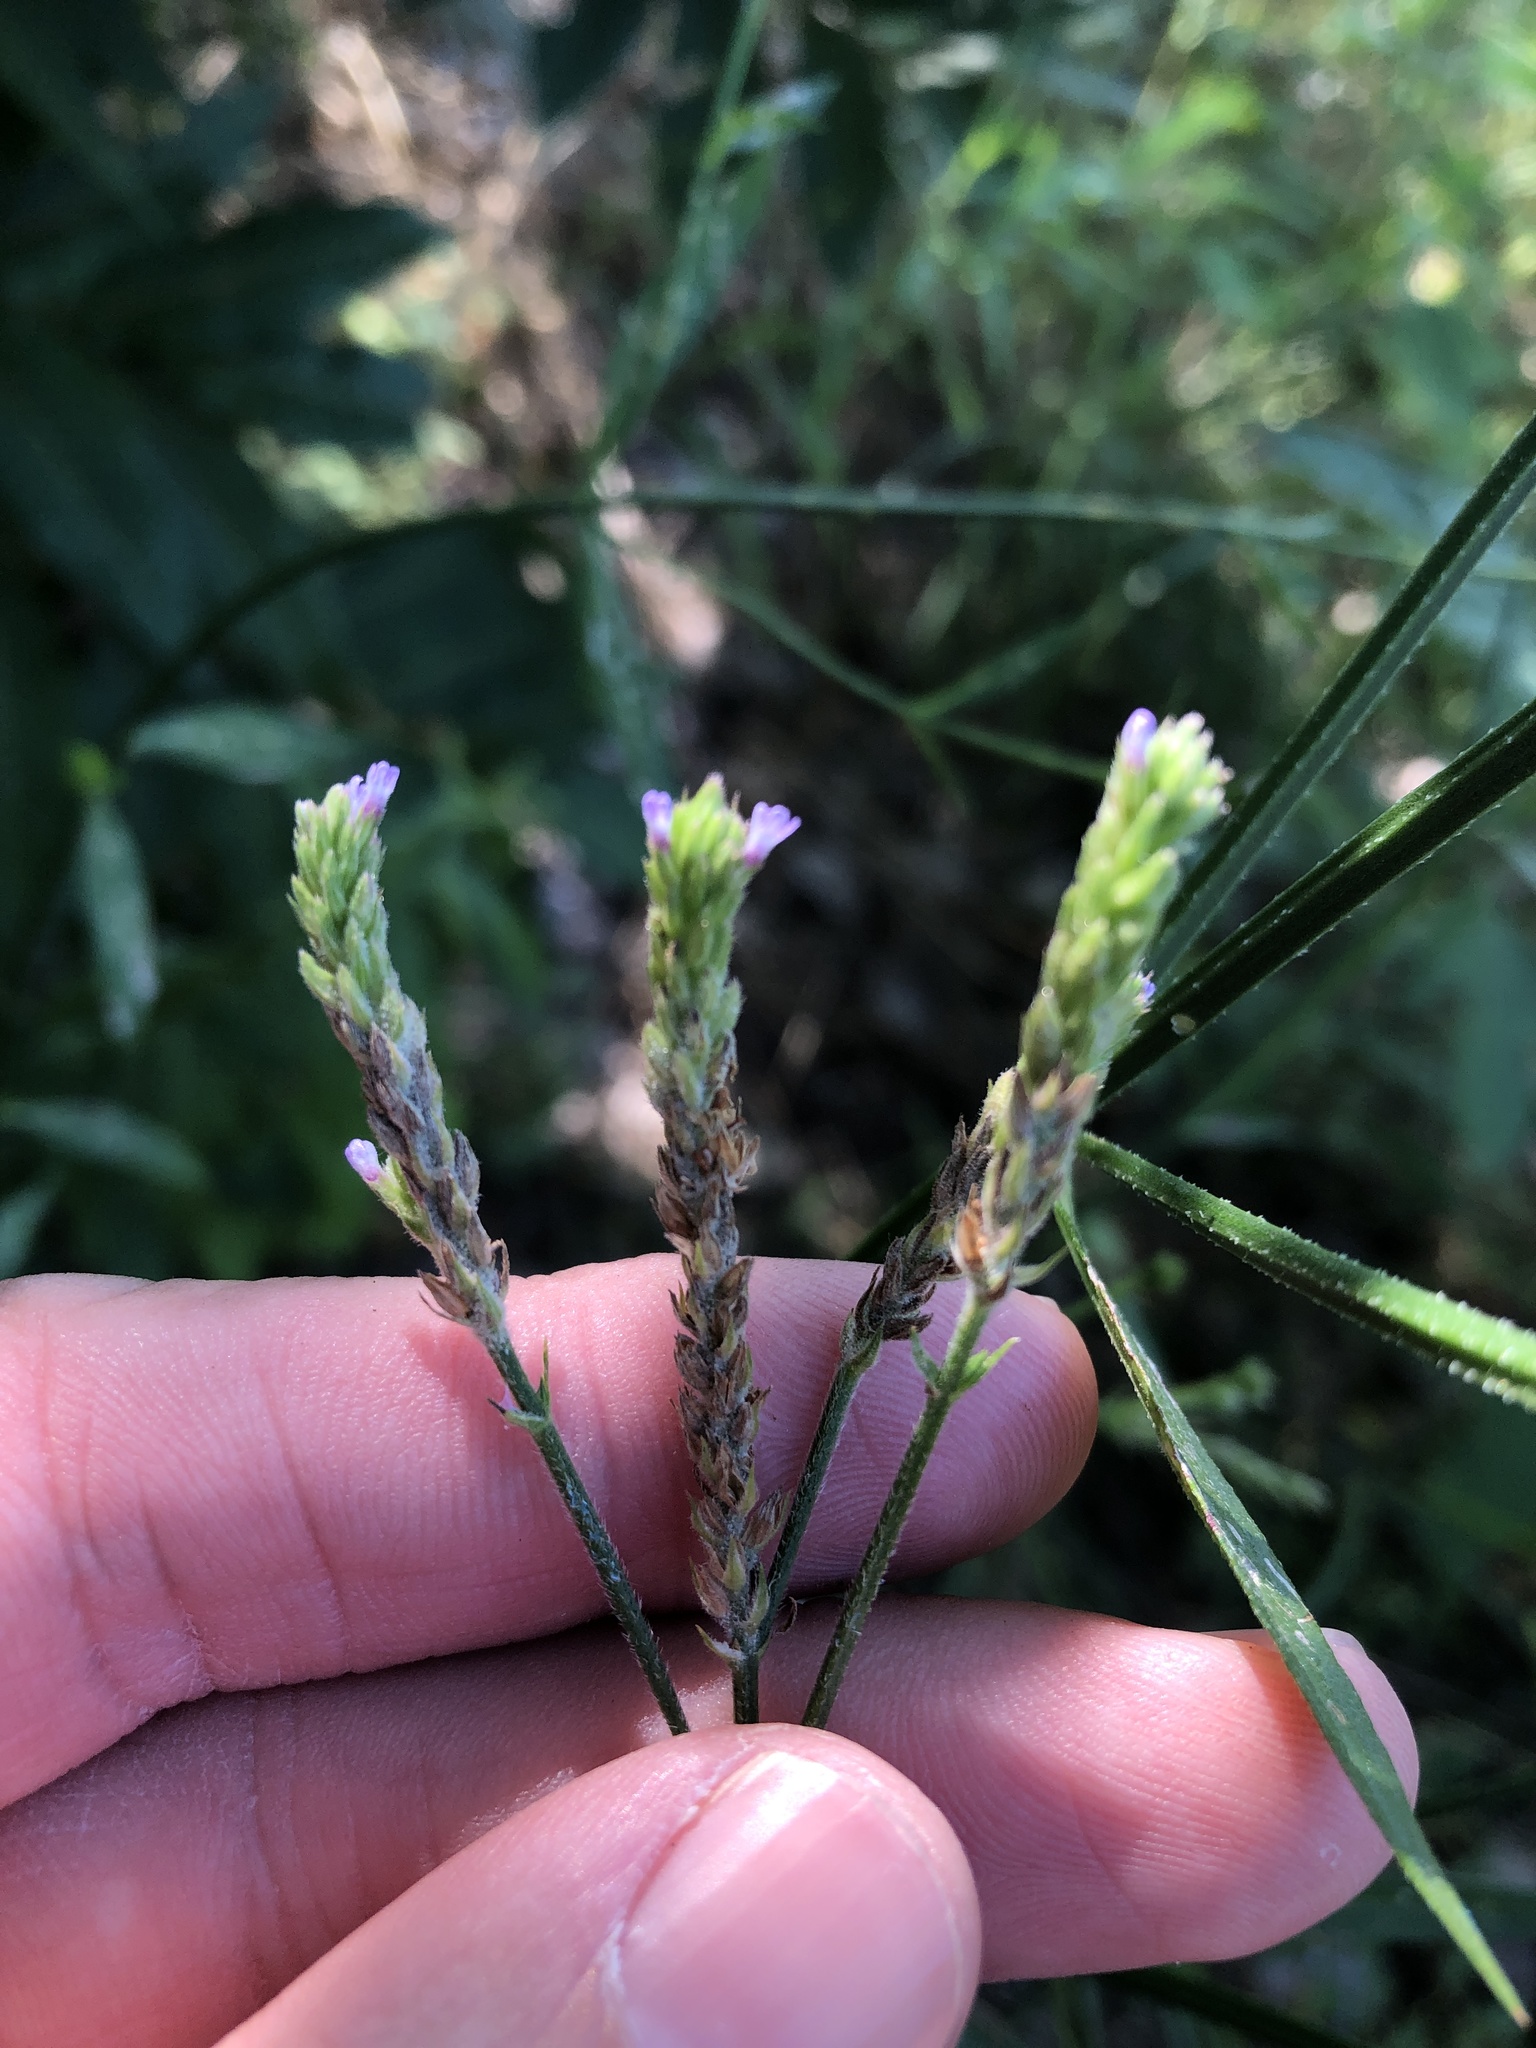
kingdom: Plantae
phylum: Tracheophyta
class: Magnoliopsida
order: Lamiales
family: Verbenaceae
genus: Verbena
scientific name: Verbena brasiliensis
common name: Brazilian vervain
